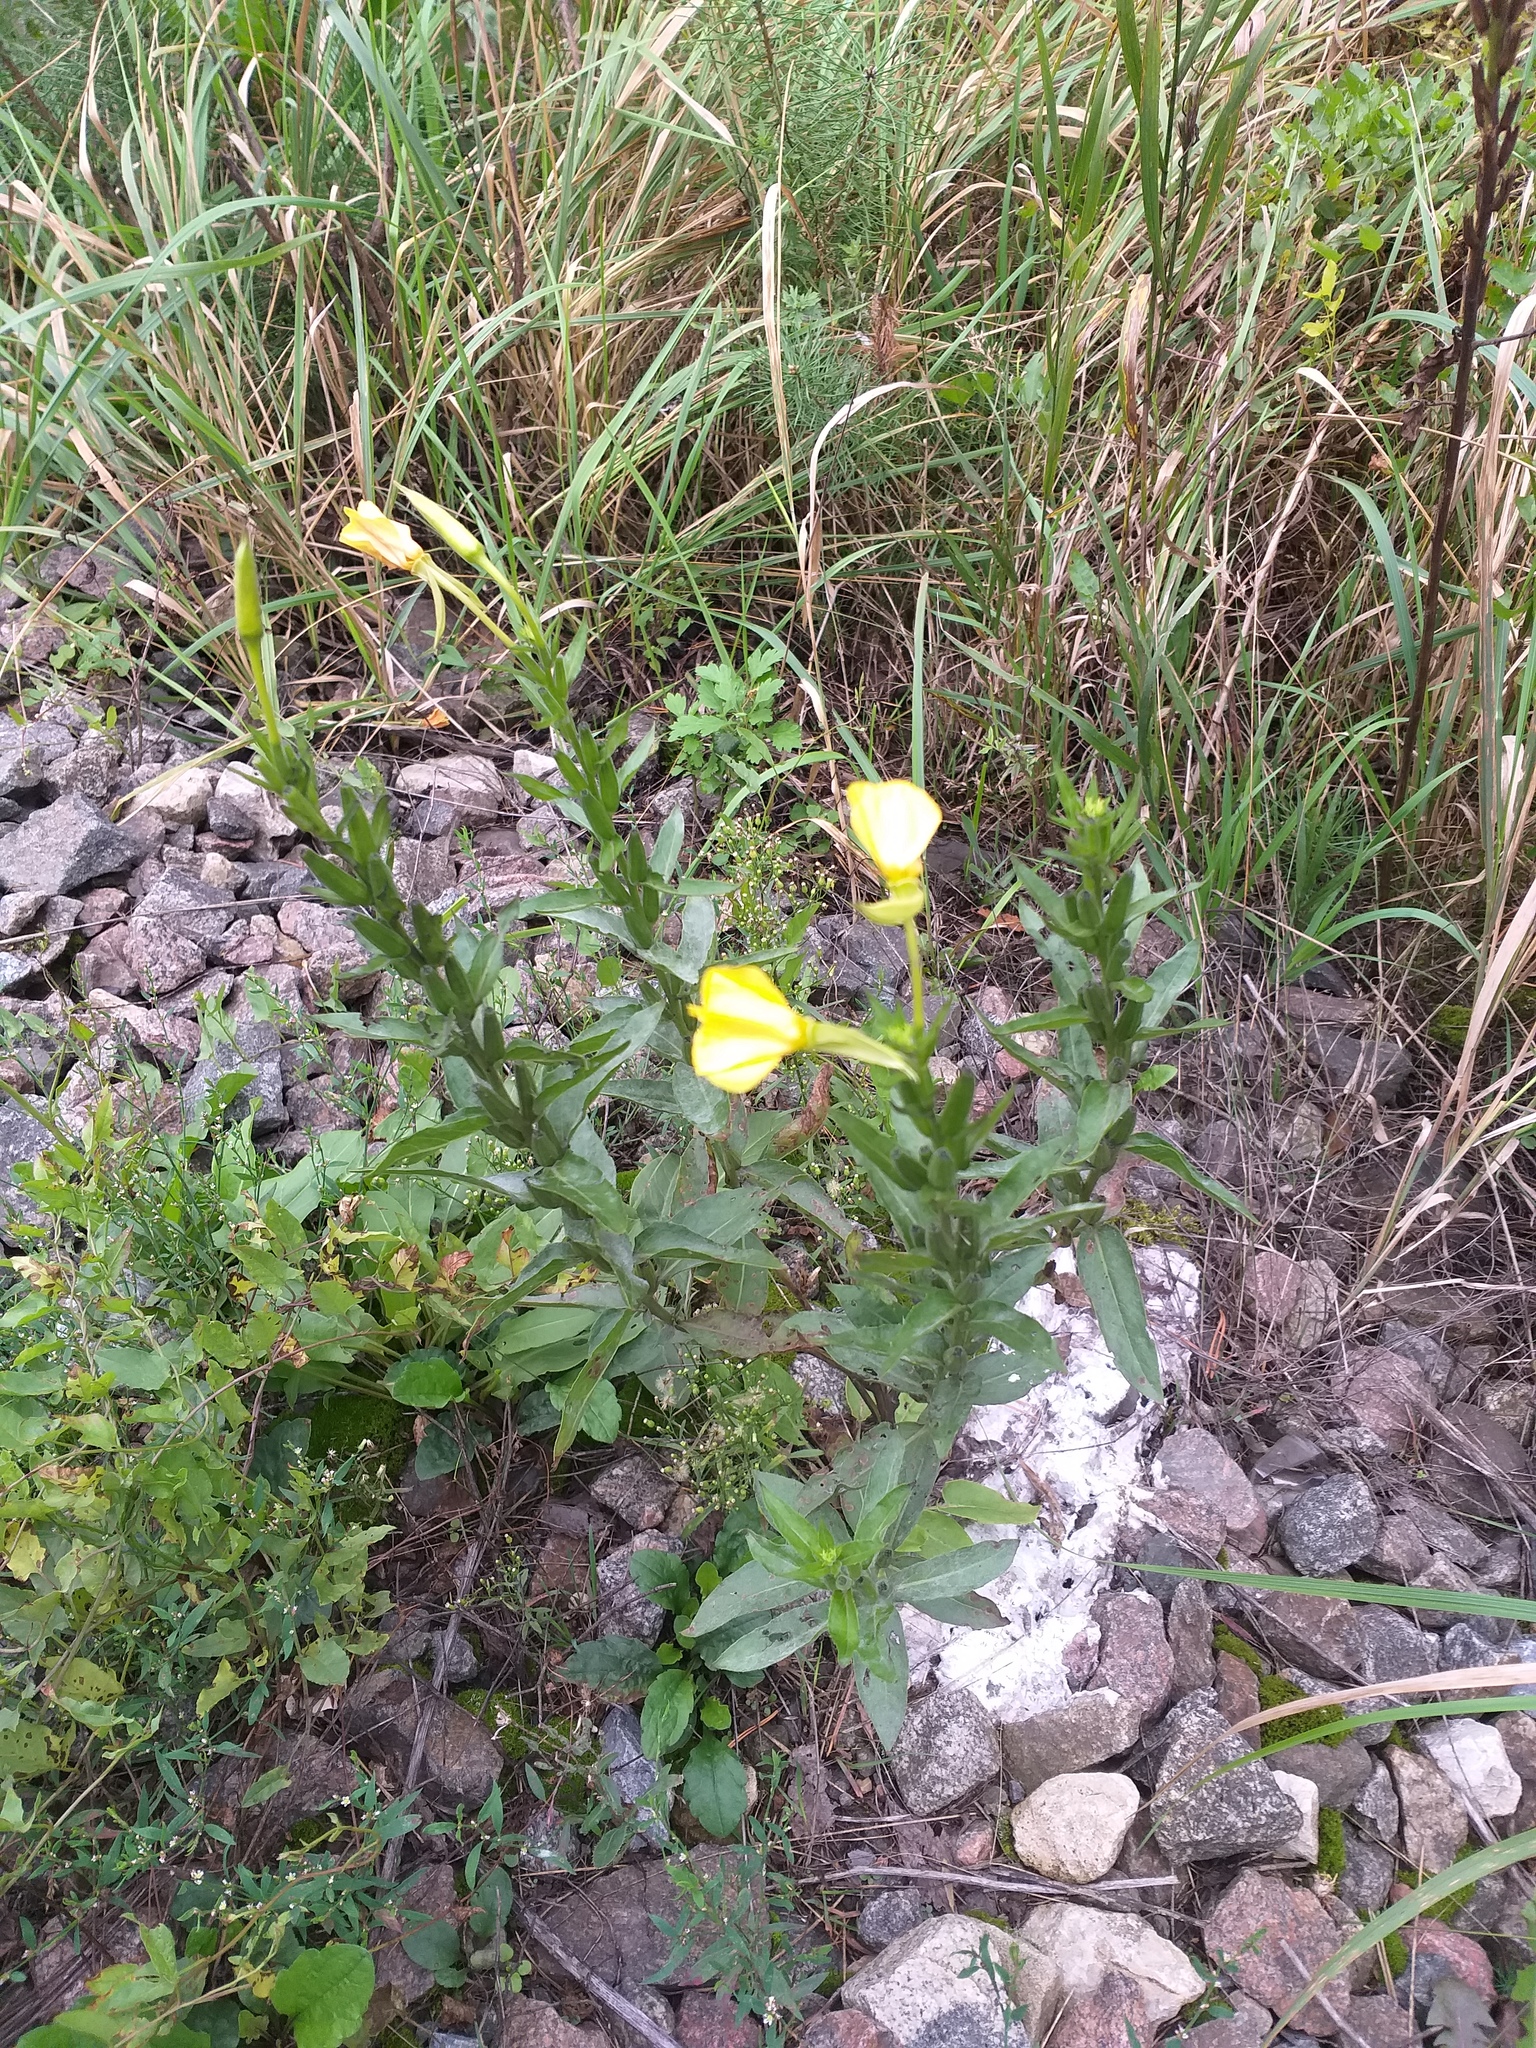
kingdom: Plantae
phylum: Tracheophyta
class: Magnoliopsida
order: Myrtales
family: Onagraceae
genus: Oenothera
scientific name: Oenothera biennis
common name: Common evening-primrose
